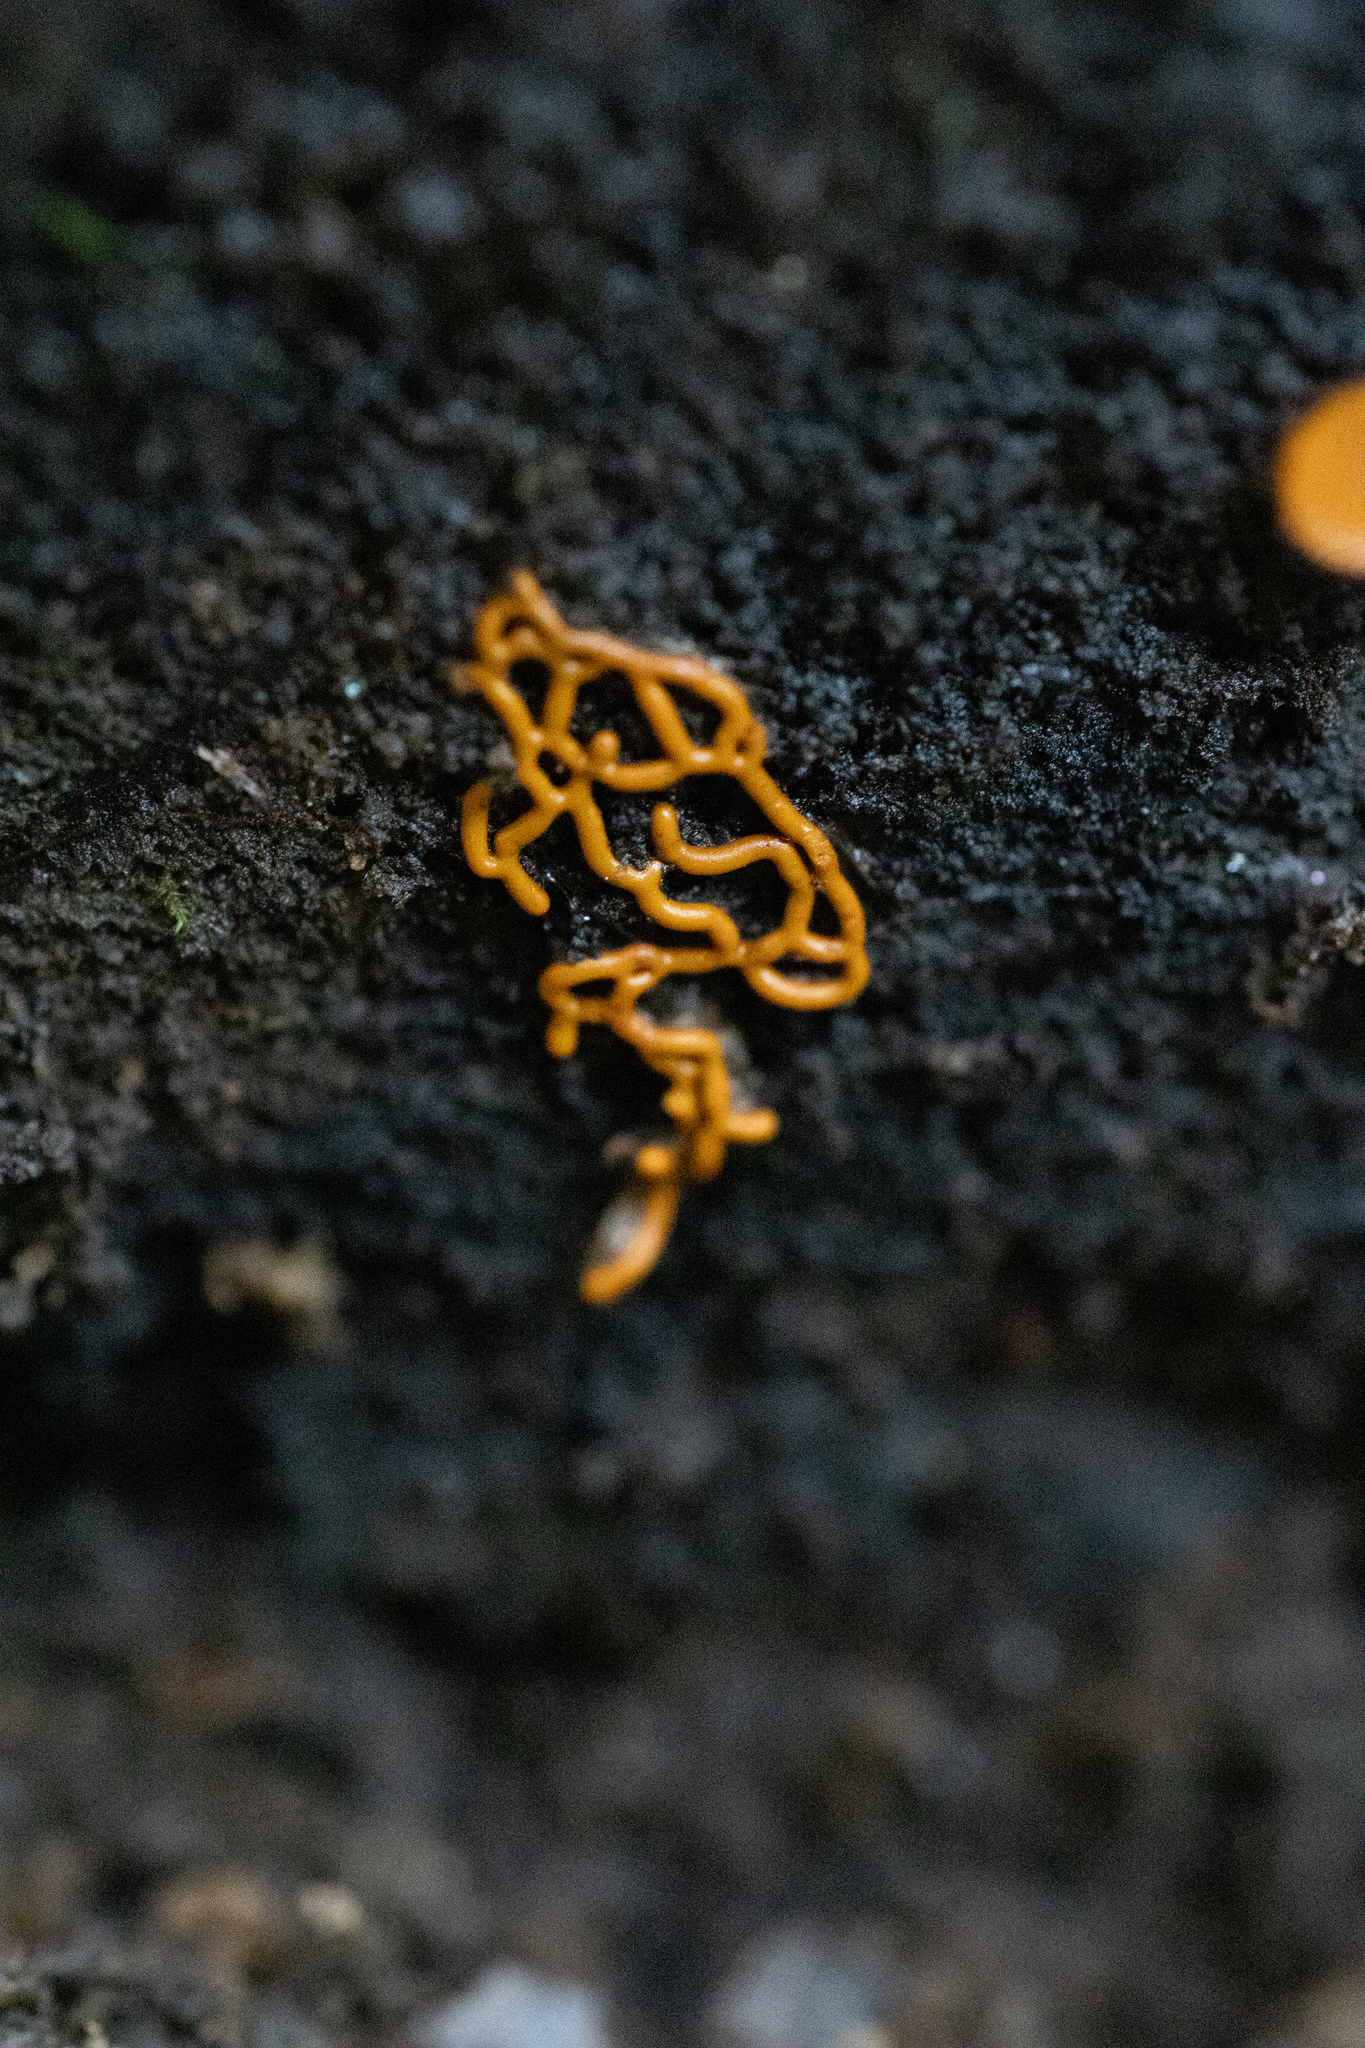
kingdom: Protozoa
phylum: Mycetozoa
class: Myxomycetes
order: Trichiales
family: Arcyriaceae
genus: Hemitrichia
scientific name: Hemitrichia serpula
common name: Pretzel slime mold
